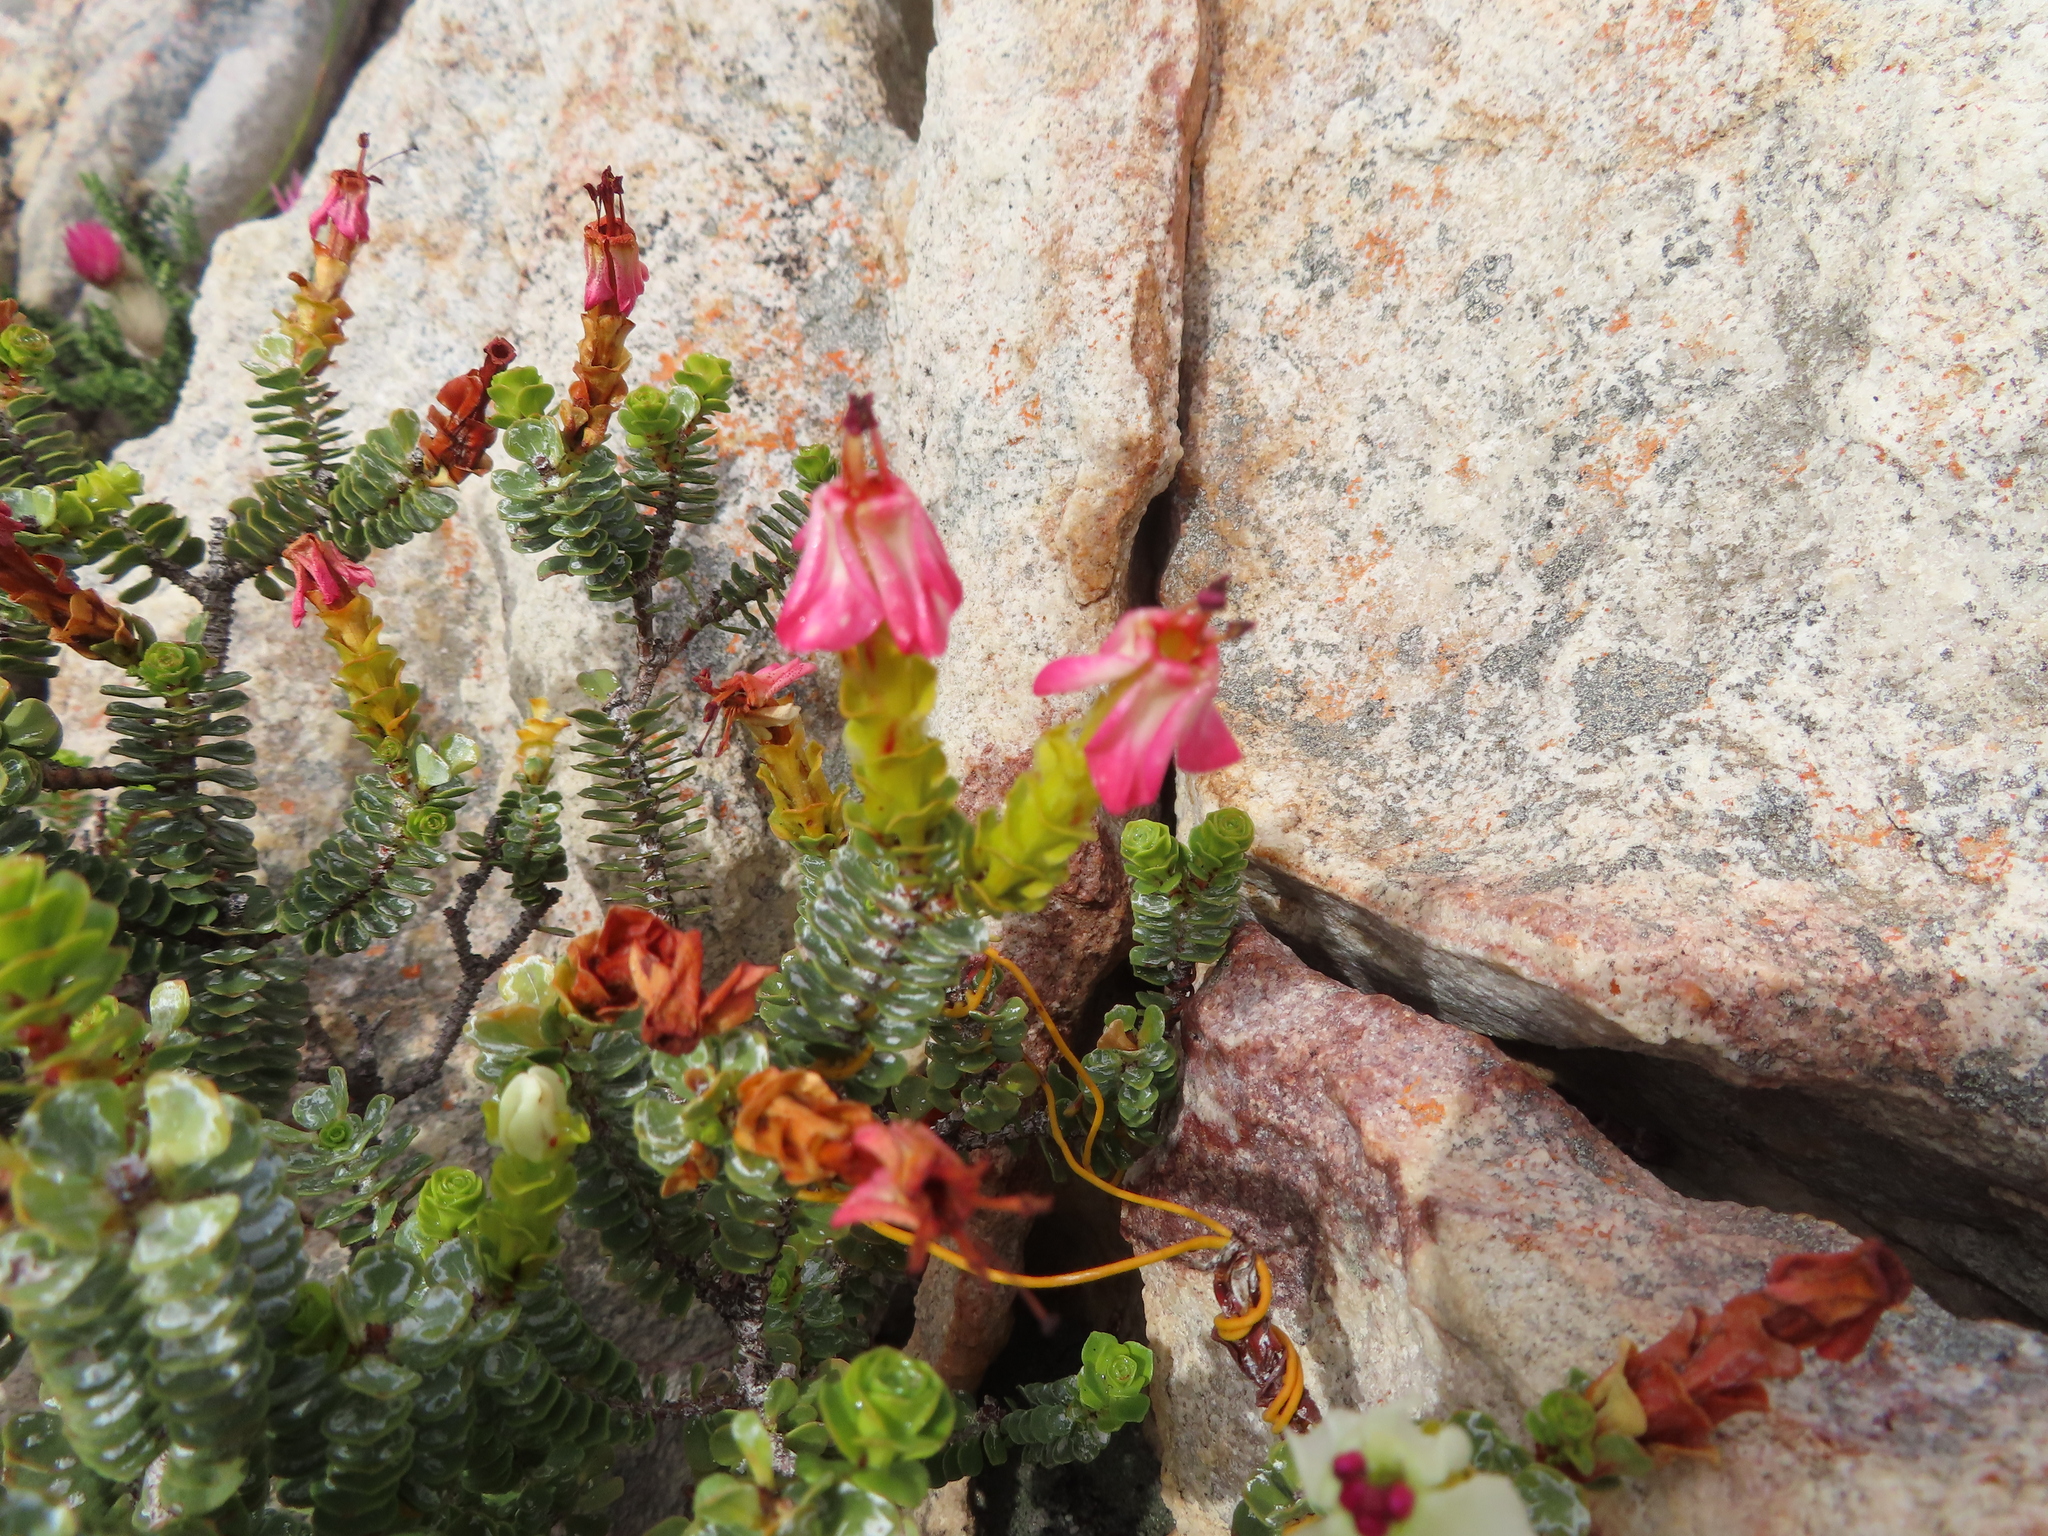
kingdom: Plantae
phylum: Tracheophyta
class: Magnoliopsida
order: Myrtales
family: Penaeaceae
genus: Saltera
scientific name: Saltera sarcocolla
